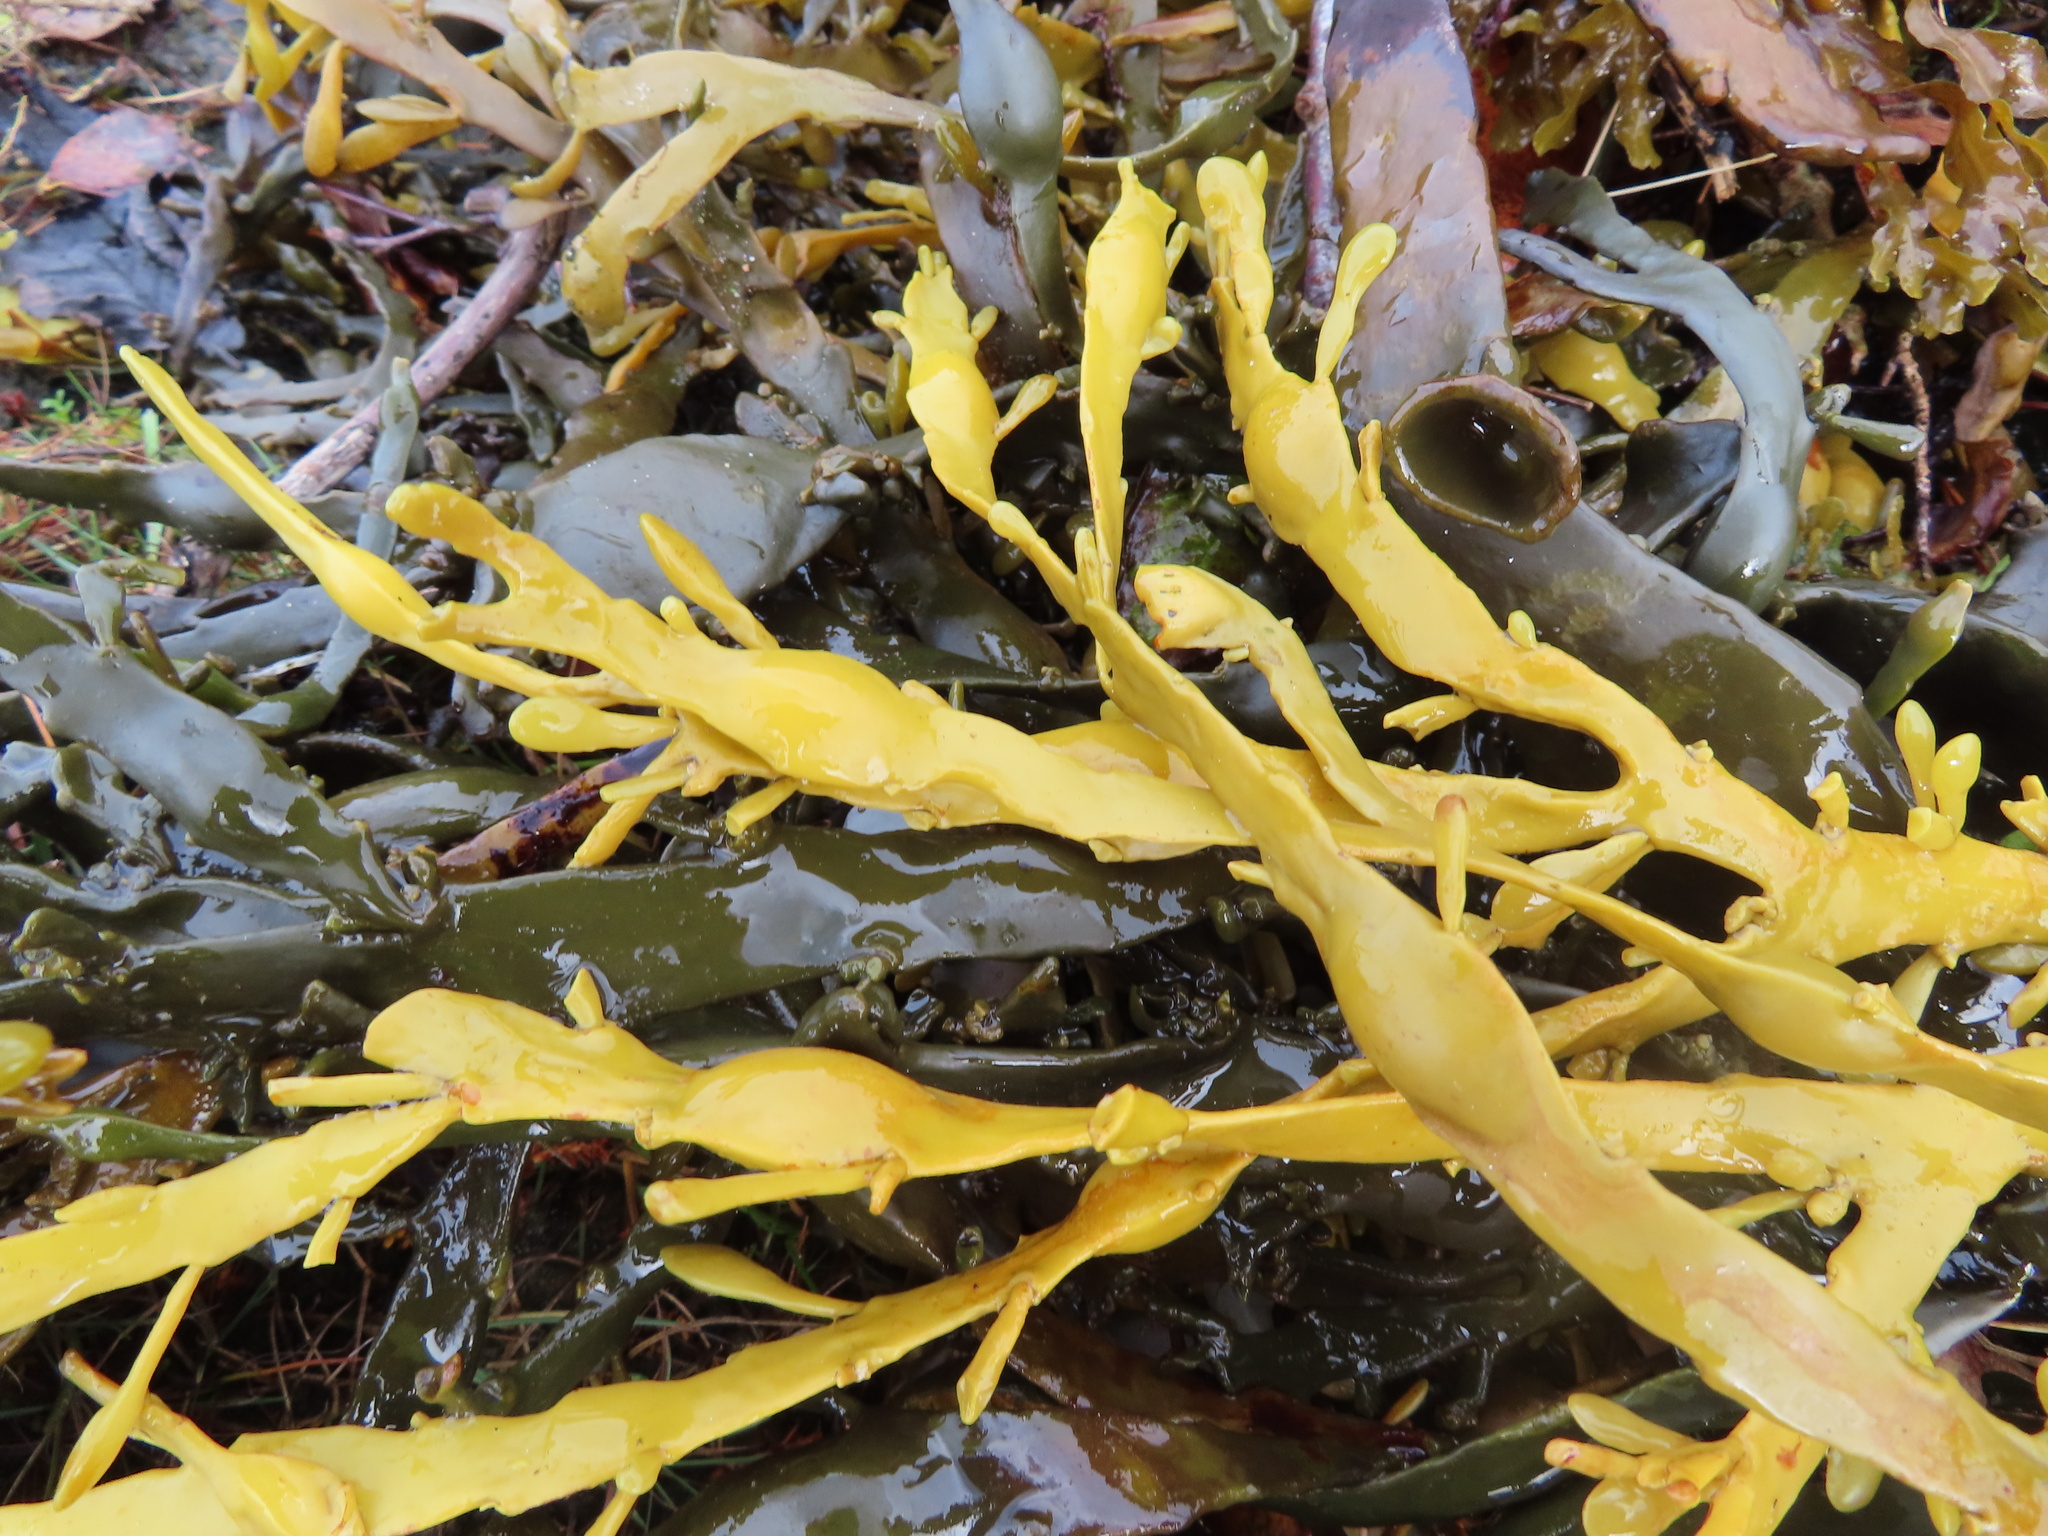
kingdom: Chromista
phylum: Ochrophyta
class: Phaeophyceae
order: Fucales
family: Fucaceae
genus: Ascophyllum
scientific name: Ascophyllum nodosum
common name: Knotted wrack
